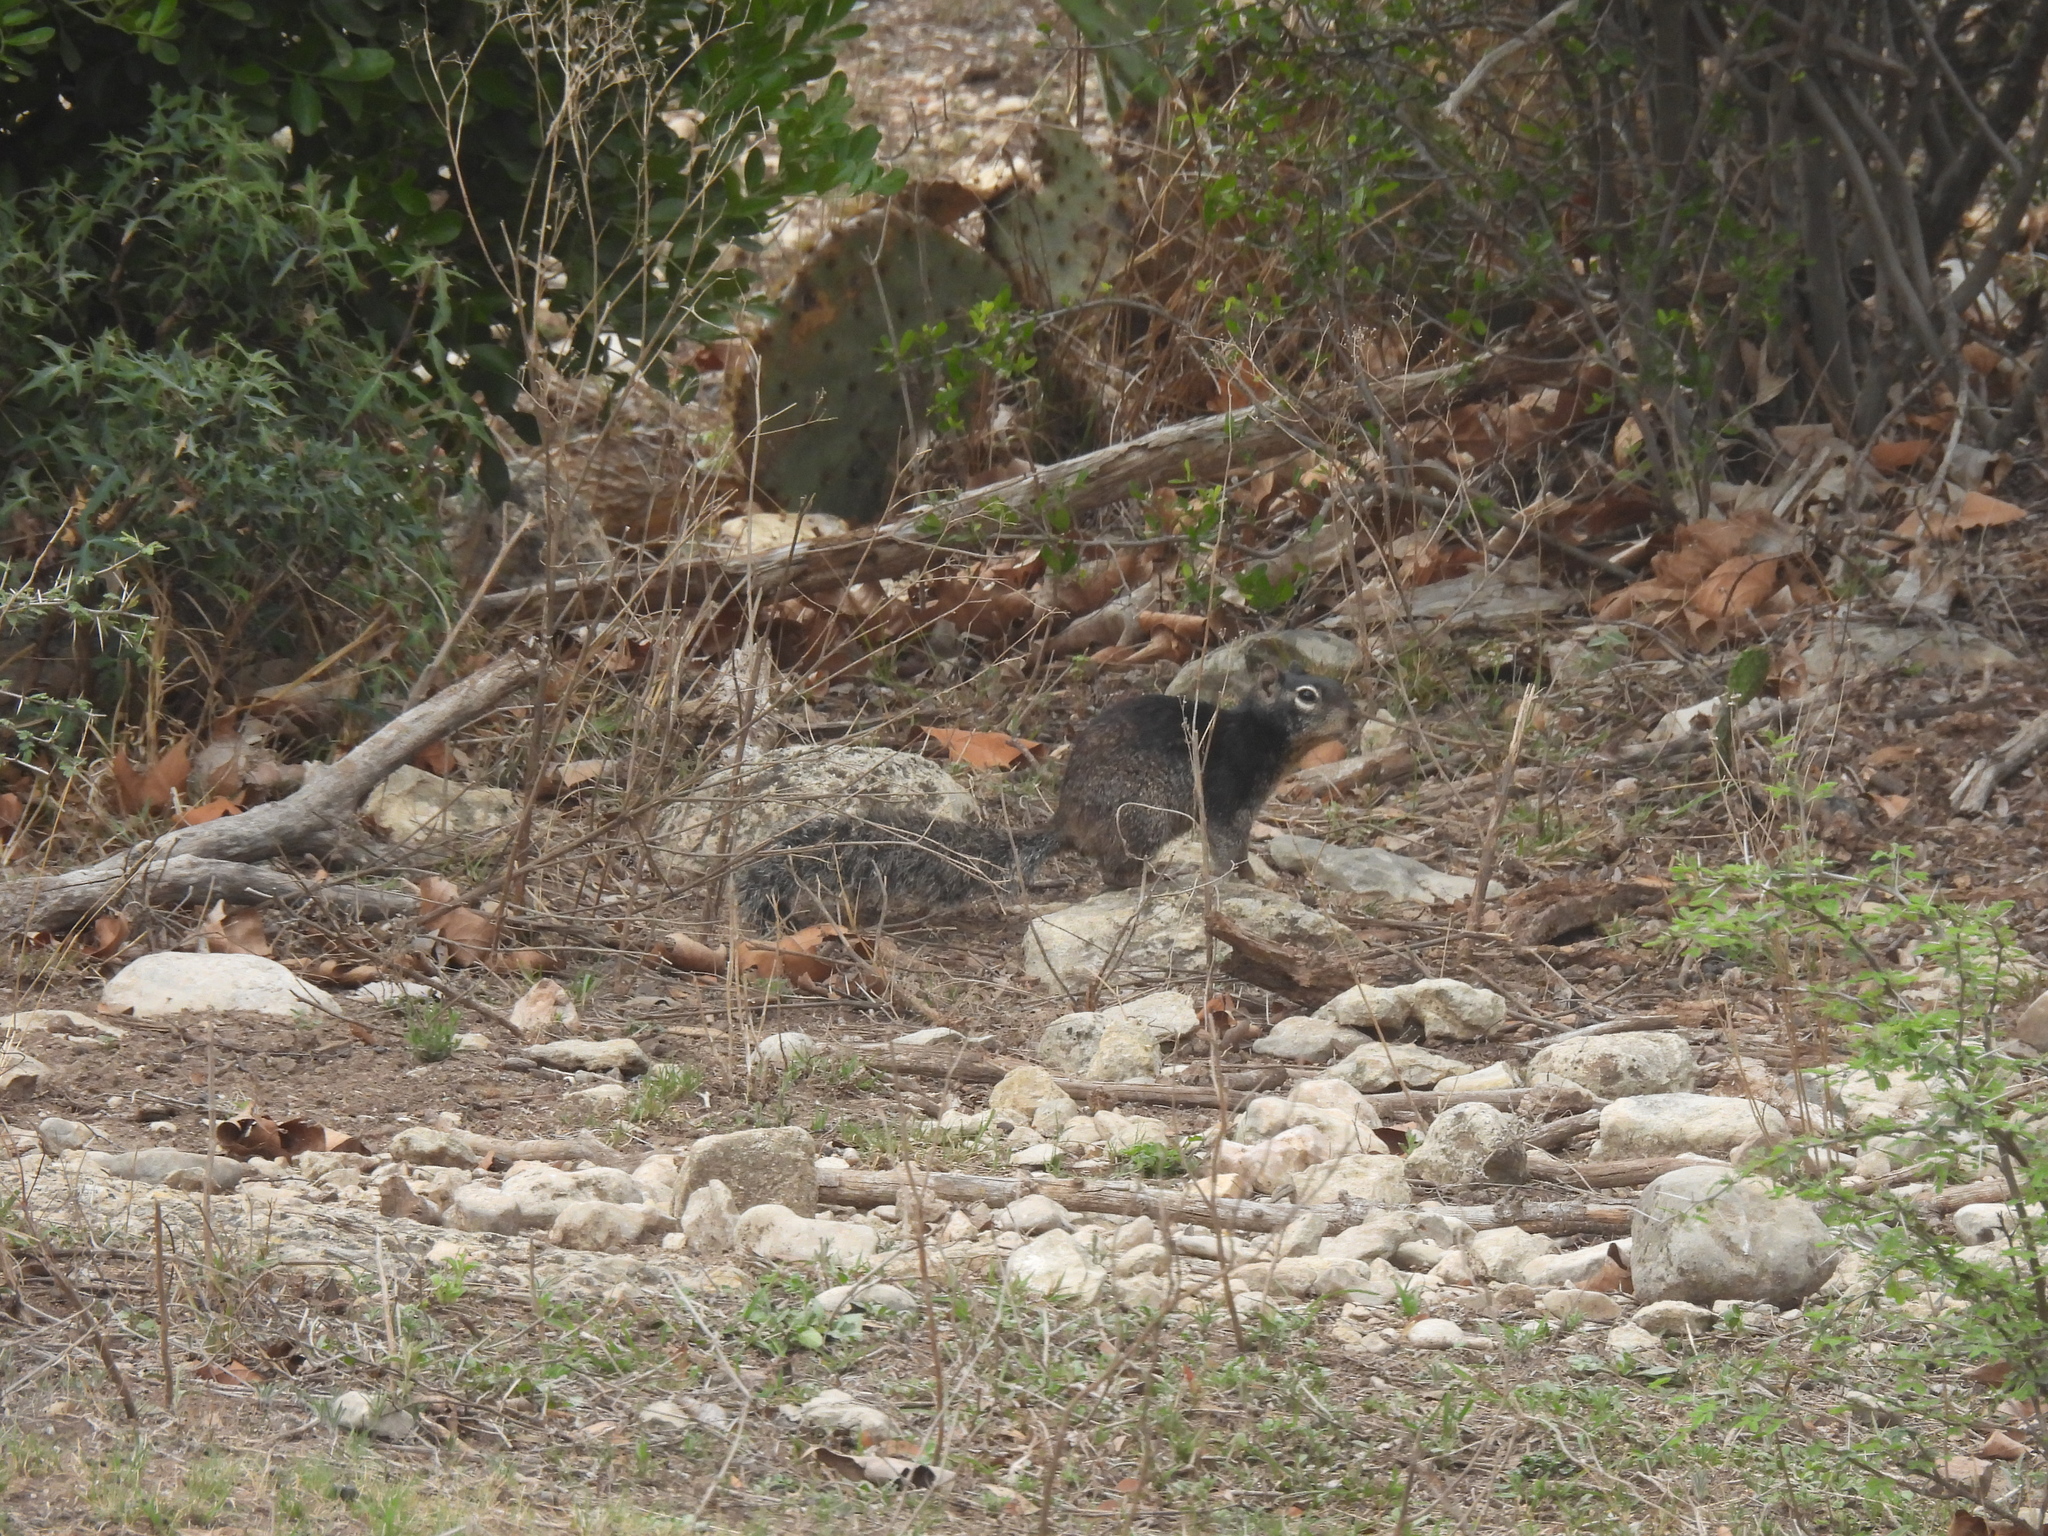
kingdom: Animalia
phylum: Chordata
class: Mammalia
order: Rodentia
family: Sciuridae
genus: Otospermophilus
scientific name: Otospermophilus variegatus
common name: Rock squirrel
